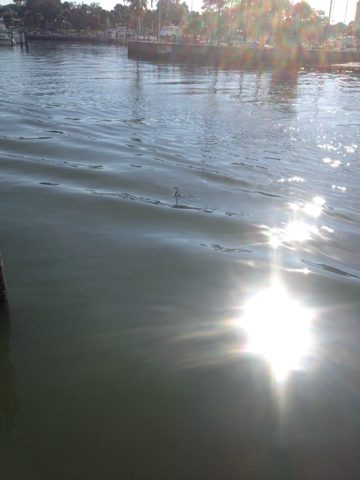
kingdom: Animalia
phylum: Chordata
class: Aves
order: Suliformes
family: Anhingidae
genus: Anhinga
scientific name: Anhinga anhinga
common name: Anhinga
